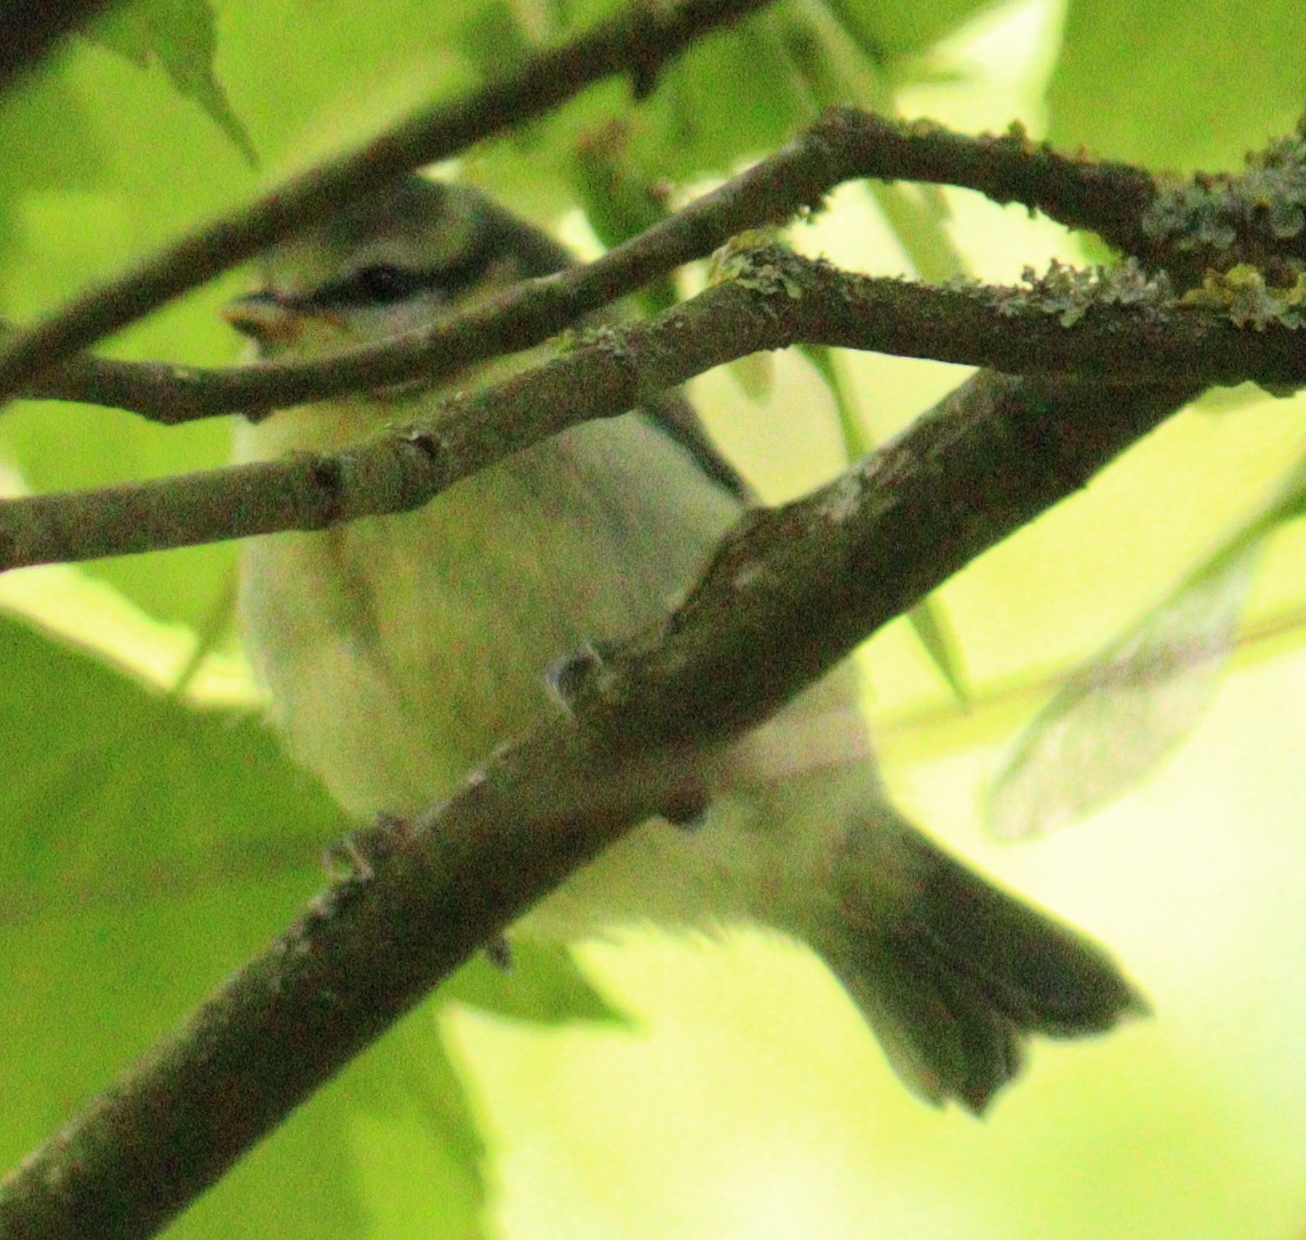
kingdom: Animalia
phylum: Chordata
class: Aves
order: Passeriformes
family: Paridae
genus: Cyanistes
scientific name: Cyanistes caeruleus
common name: Eurasian blue tit
